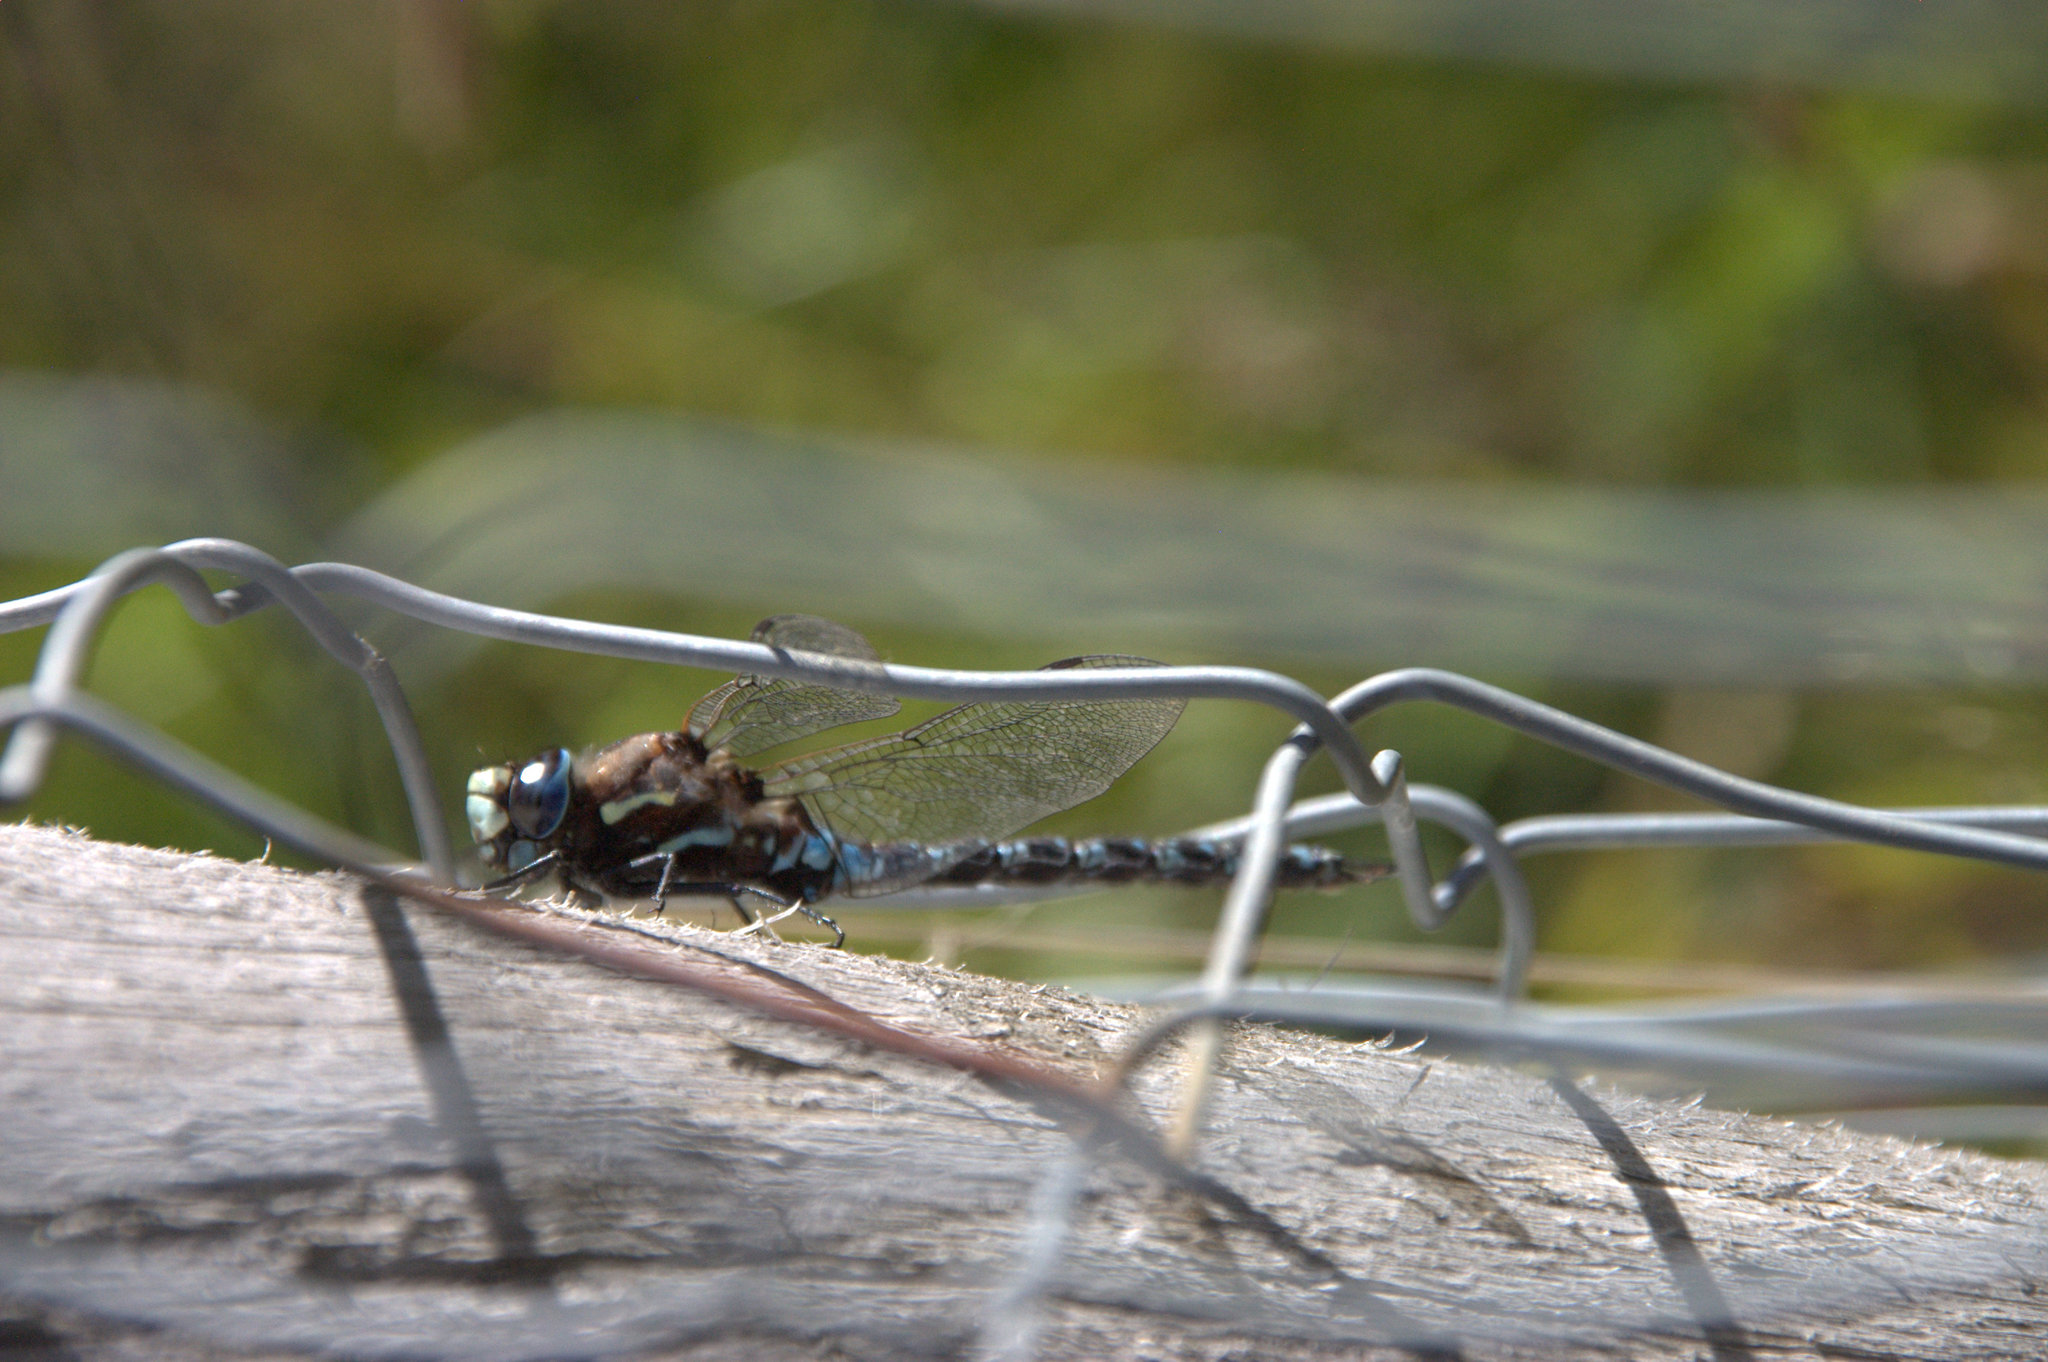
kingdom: Animalia
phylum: Arthropoda
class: Insecta
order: Odonata
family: Aeshnidae
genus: Rhionaeschna
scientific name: Rhionaeschna variegata
